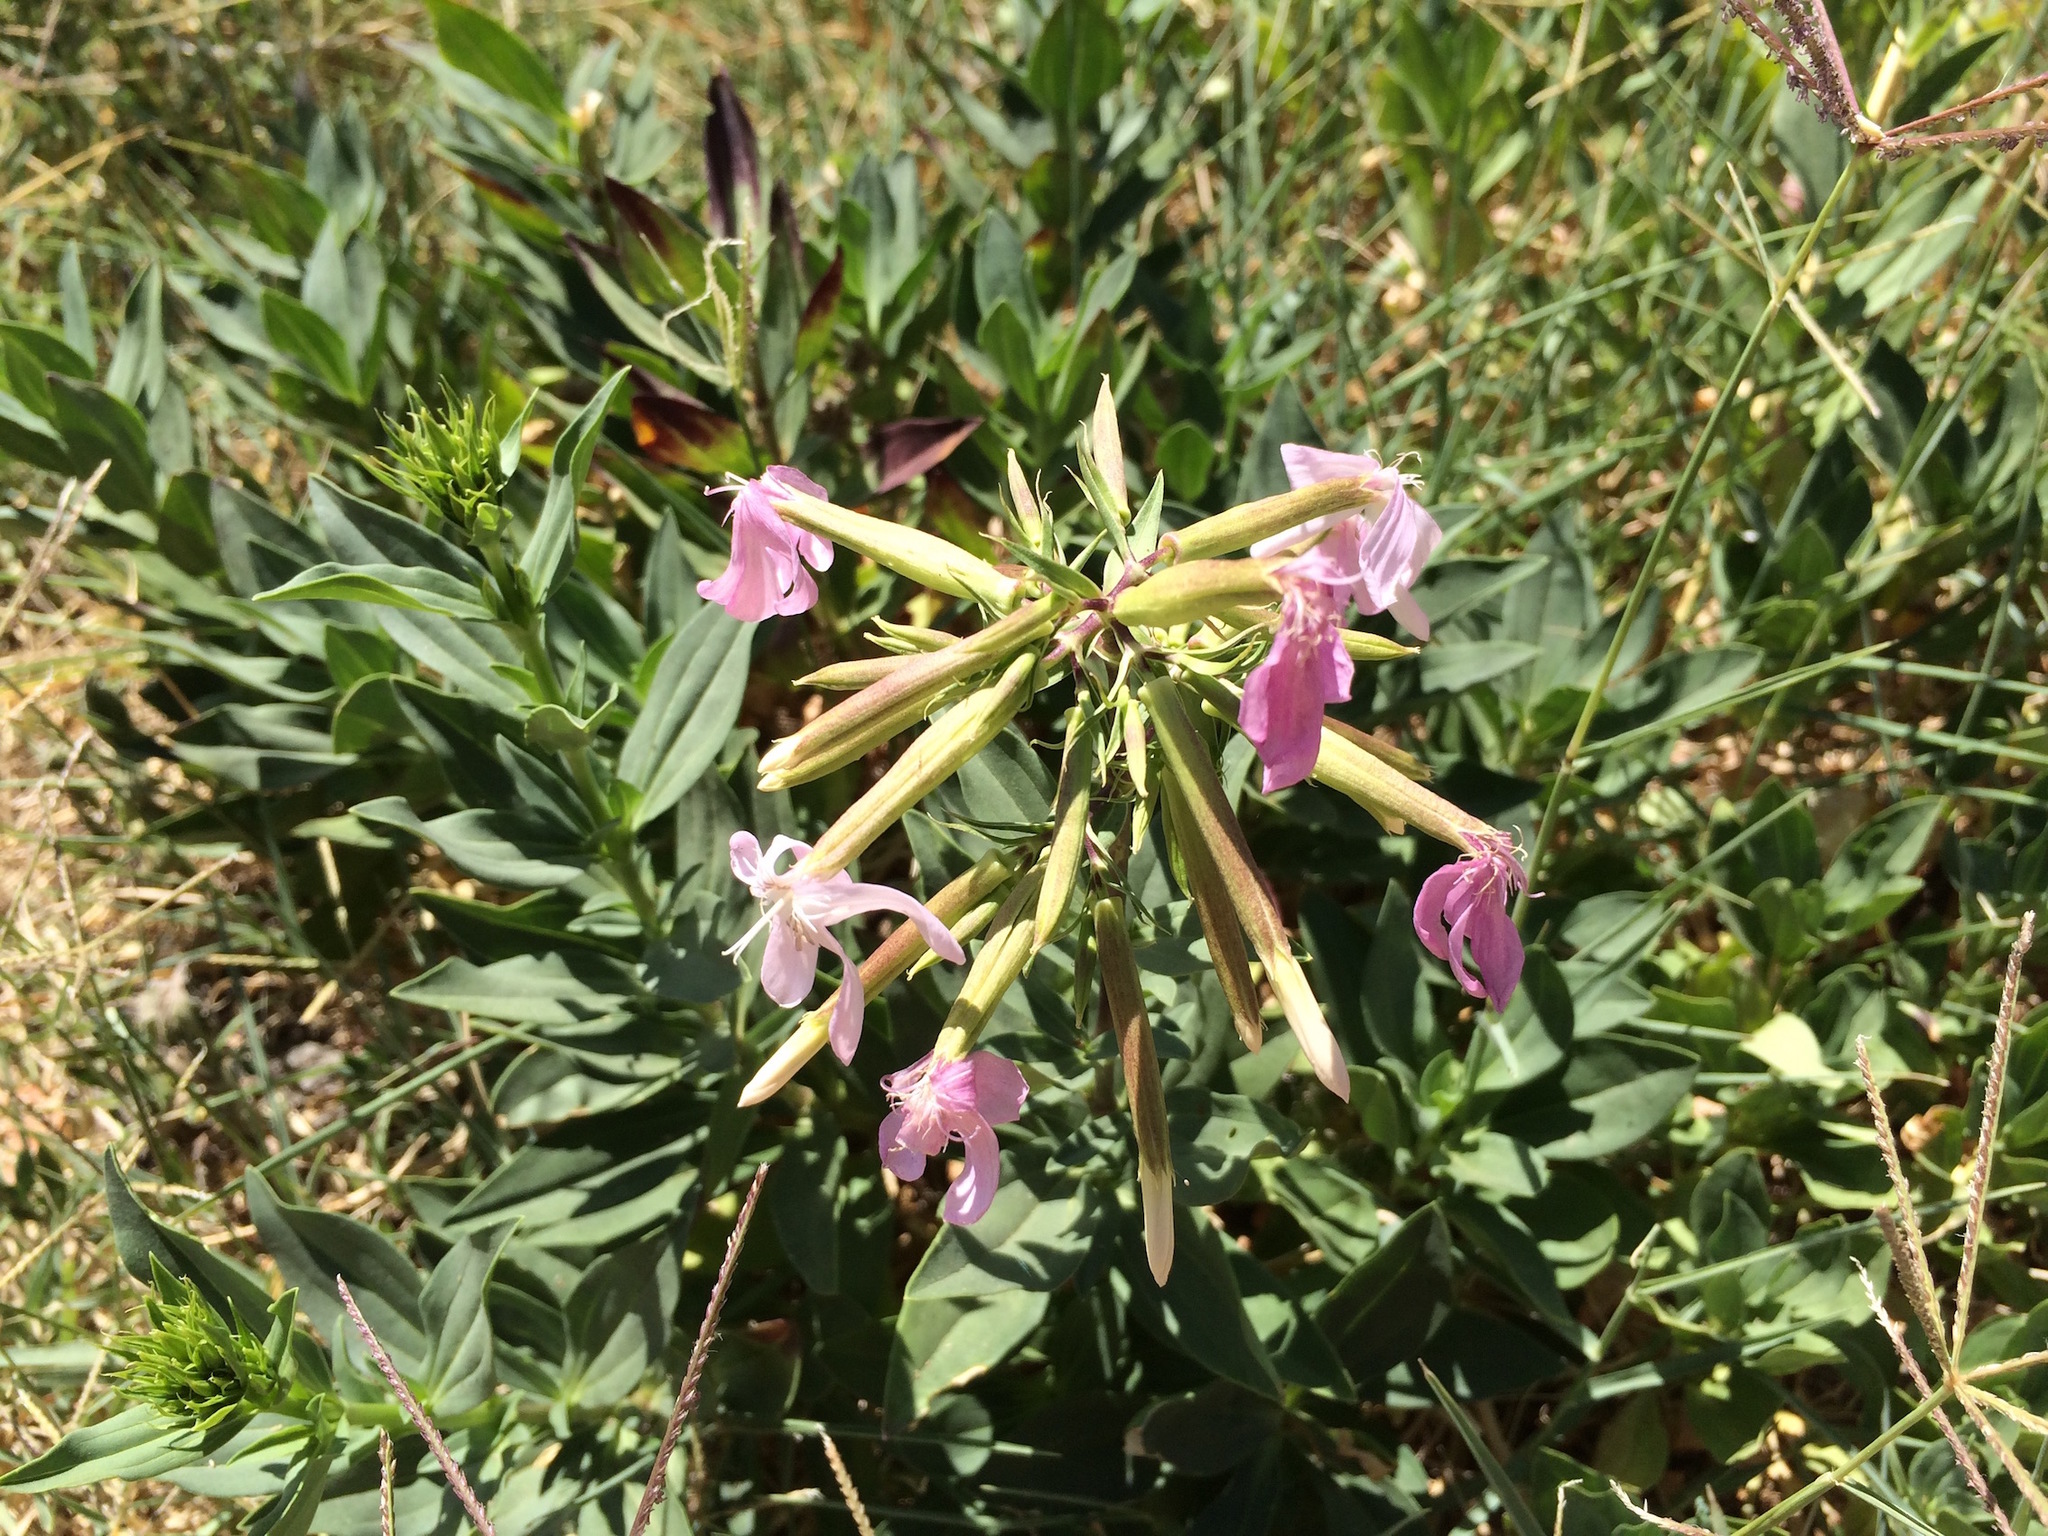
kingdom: Plantae
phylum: Tracheophyta
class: Magnoliopsida
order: Caryophyllales
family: Caryophyllaceae
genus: Saponaria
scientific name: Saponaria officinalis
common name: Soapwort
